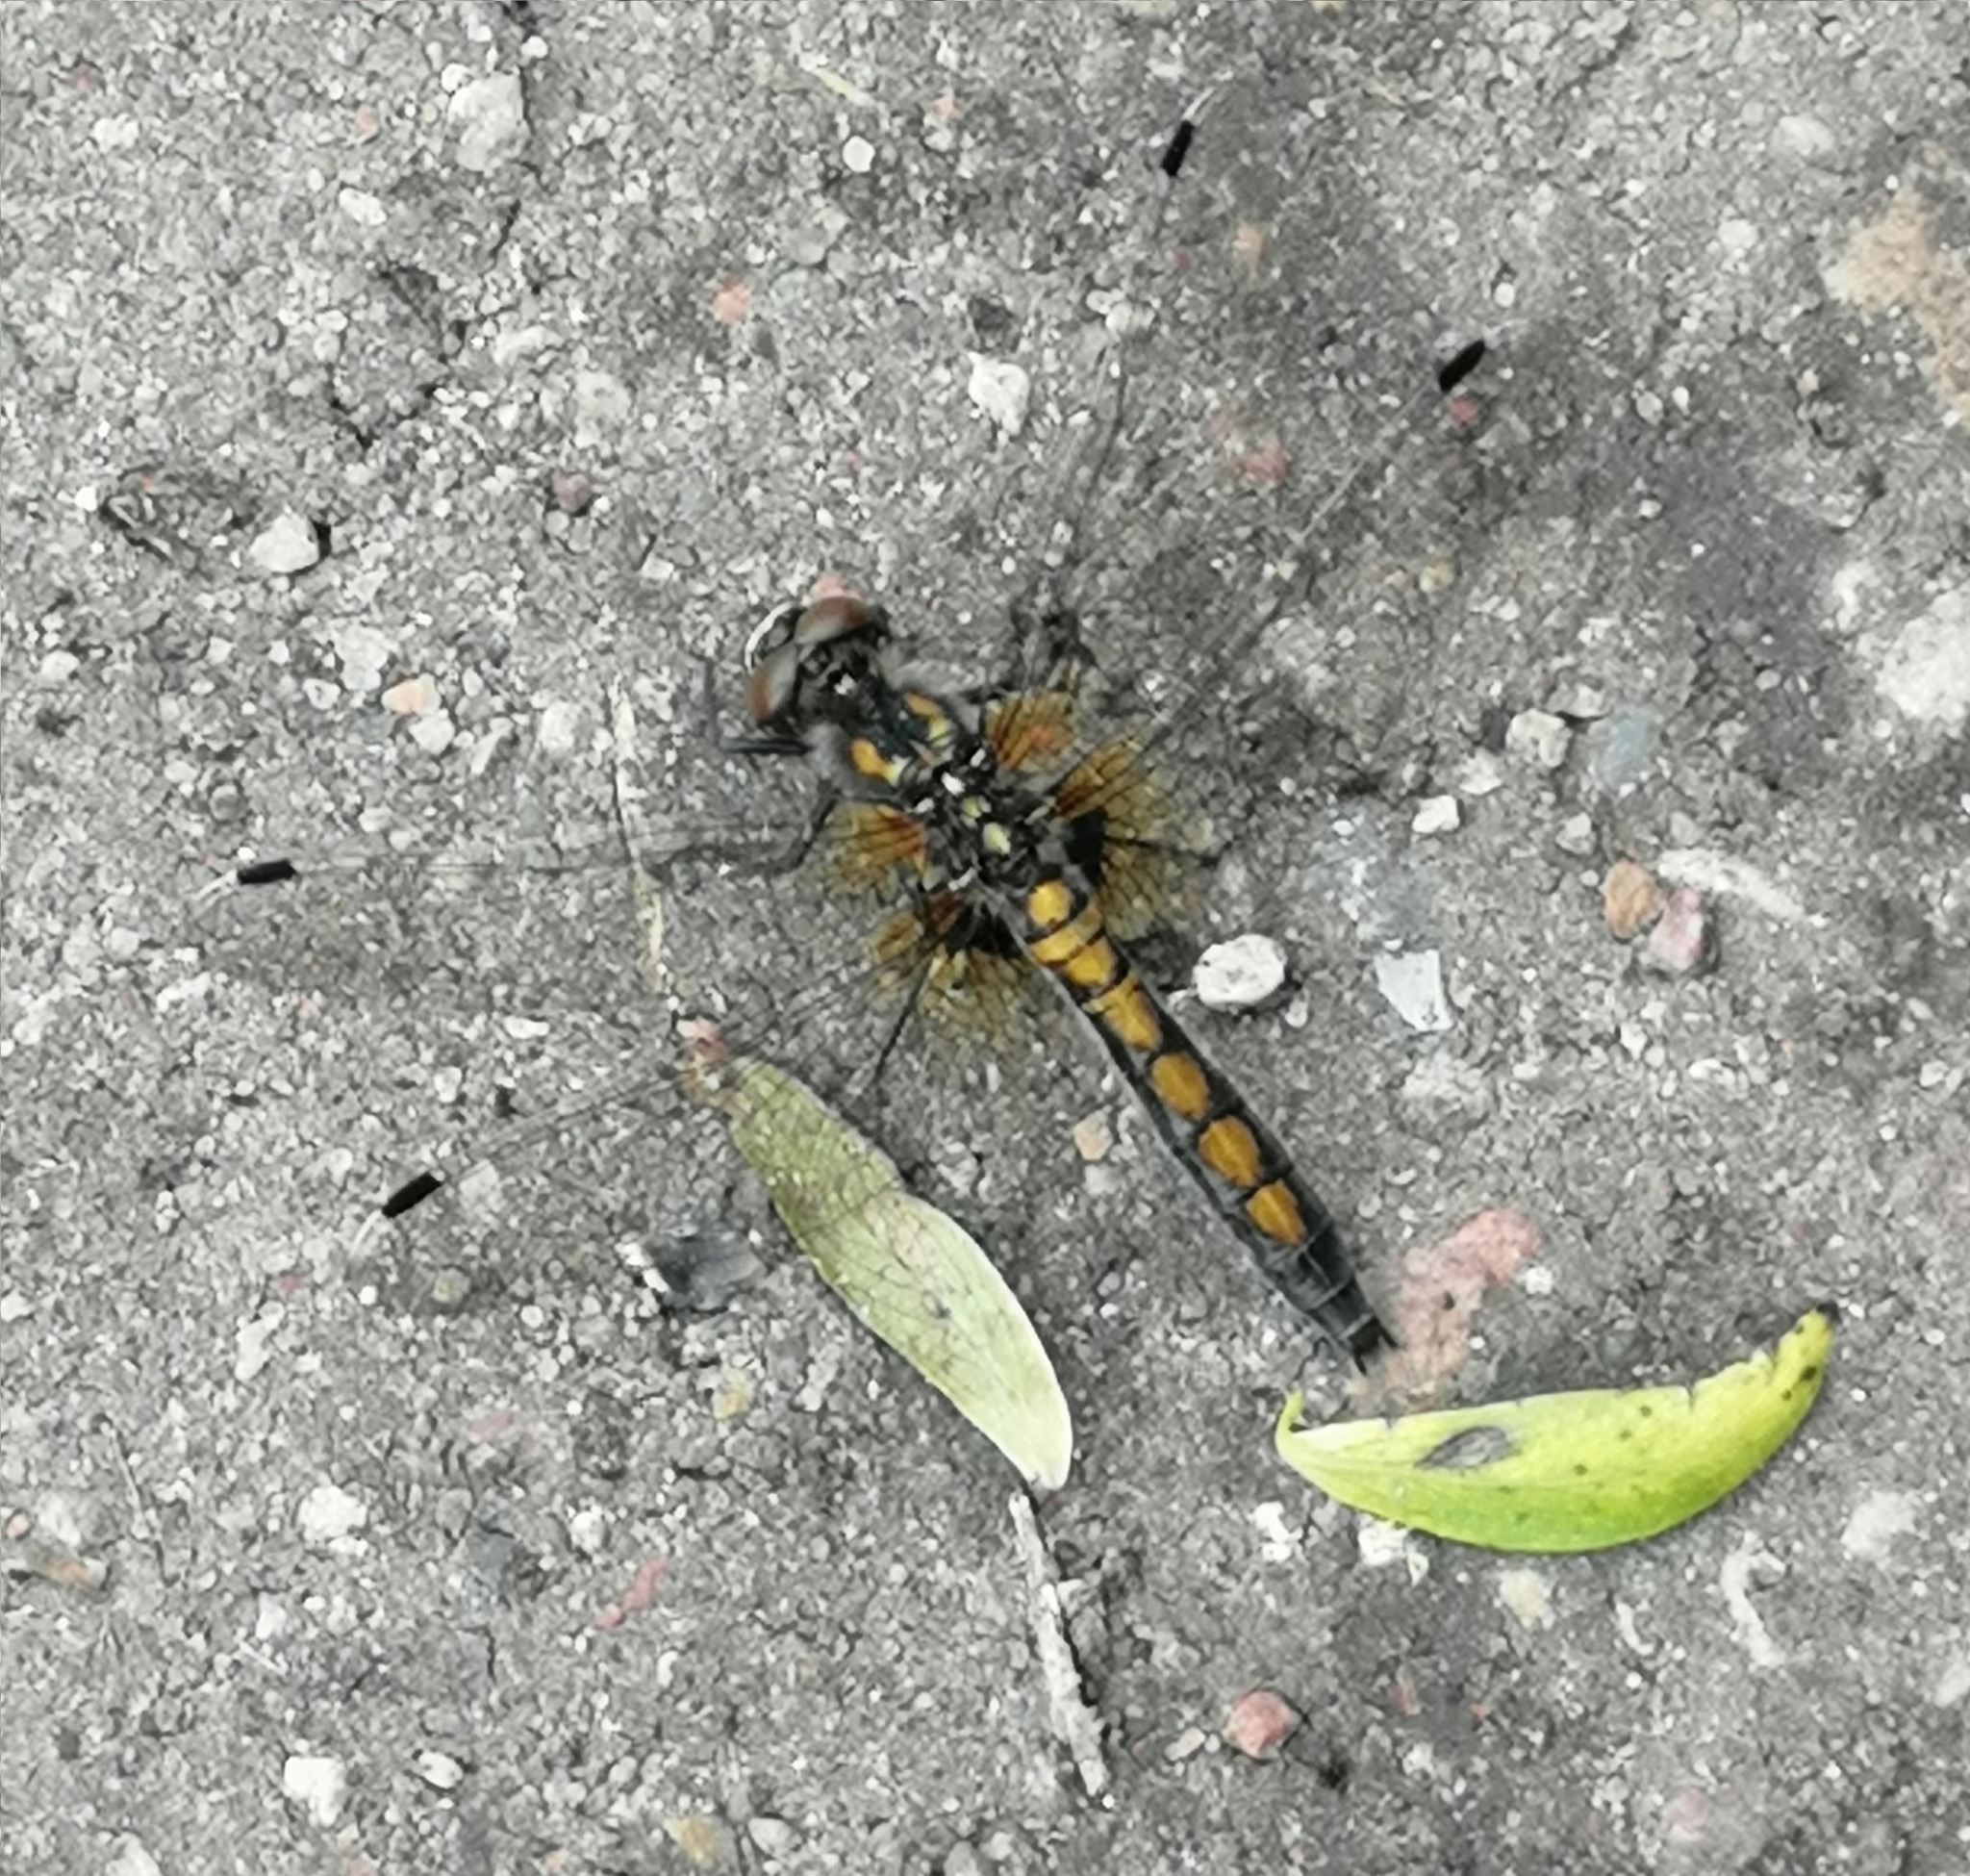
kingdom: Animalia
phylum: Arthropoda
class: Insecta
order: Odonata
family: Libellulidae
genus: Leucorrhinia
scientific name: Leucorrhinia pectoralis
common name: Yellow-spotted whiteface
